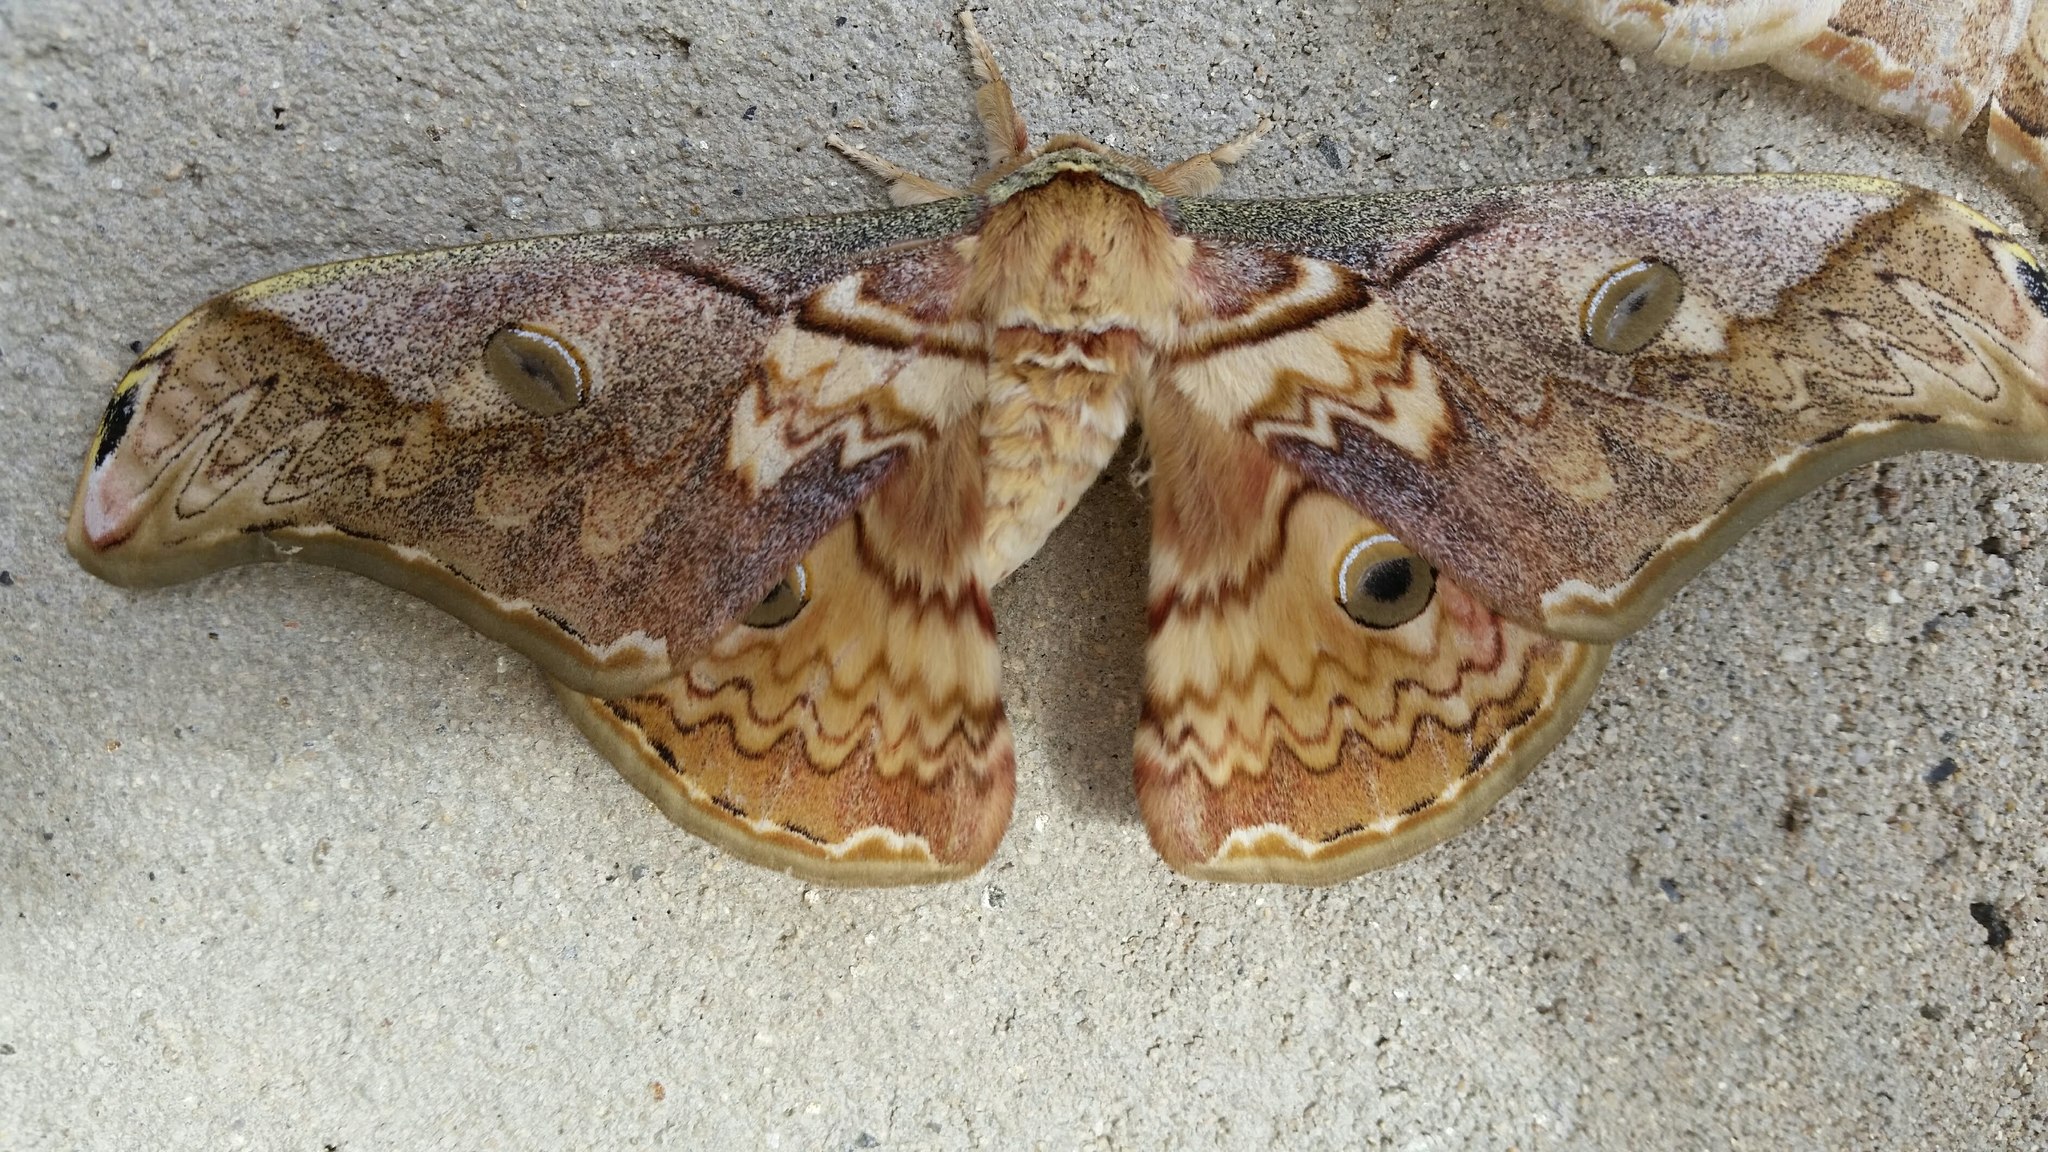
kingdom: Animalia
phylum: Arthropoda
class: Insecta
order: Lepidoptera
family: Saturniidae
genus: Rinaca
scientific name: Rinaca thibeta
